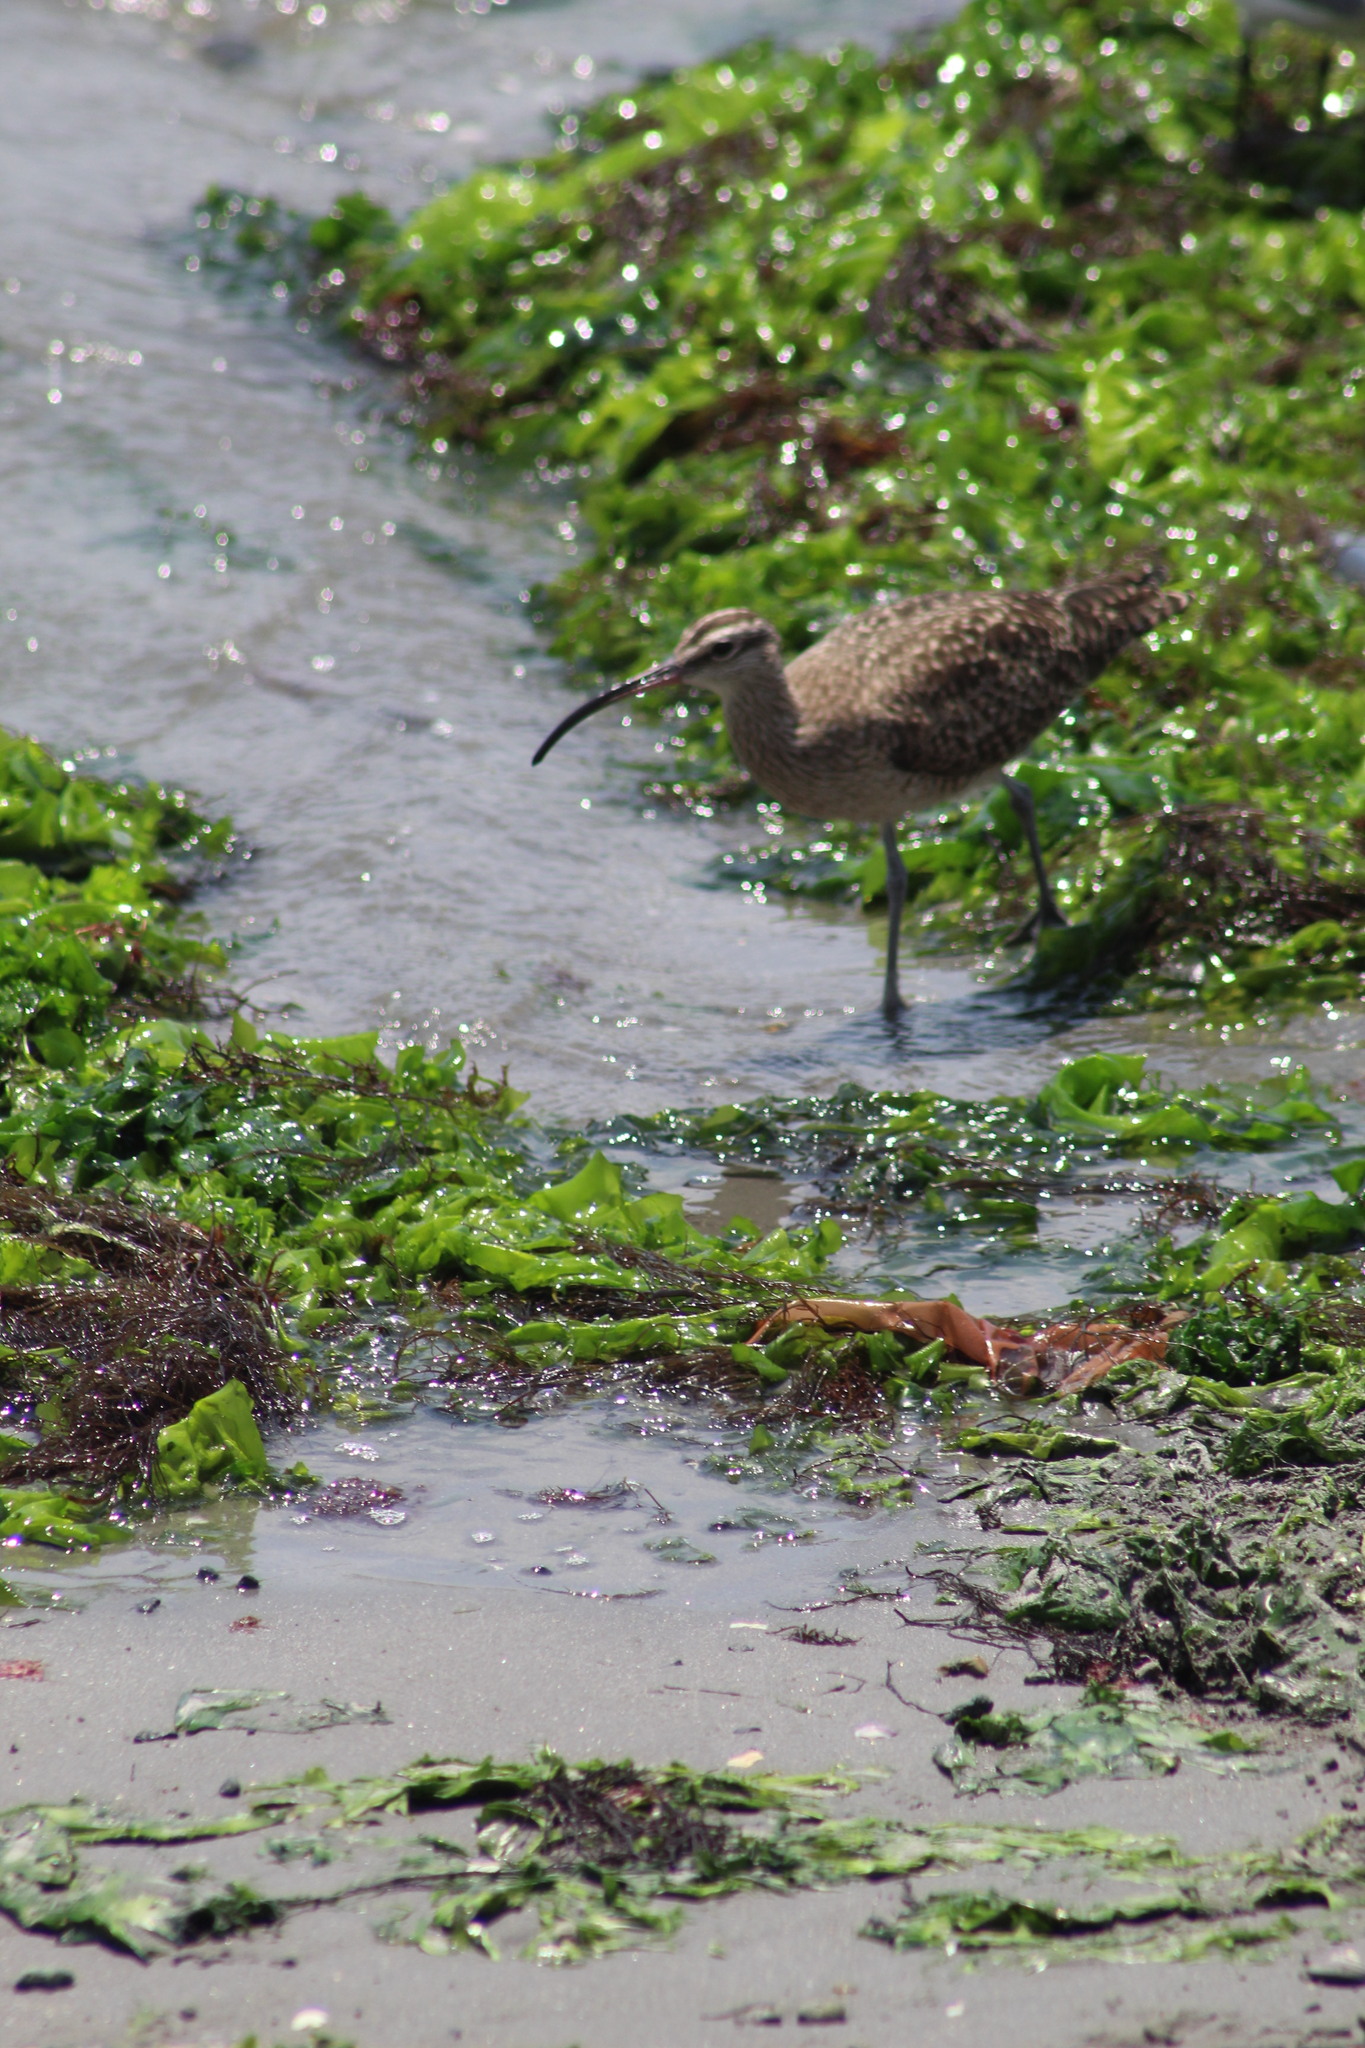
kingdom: Animalia
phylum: Chordata
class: Aves
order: Charadriiformes
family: Scolopacidae
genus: Numenius
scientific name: Numenius hudsonicus
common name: Hudsonian whimbrel
